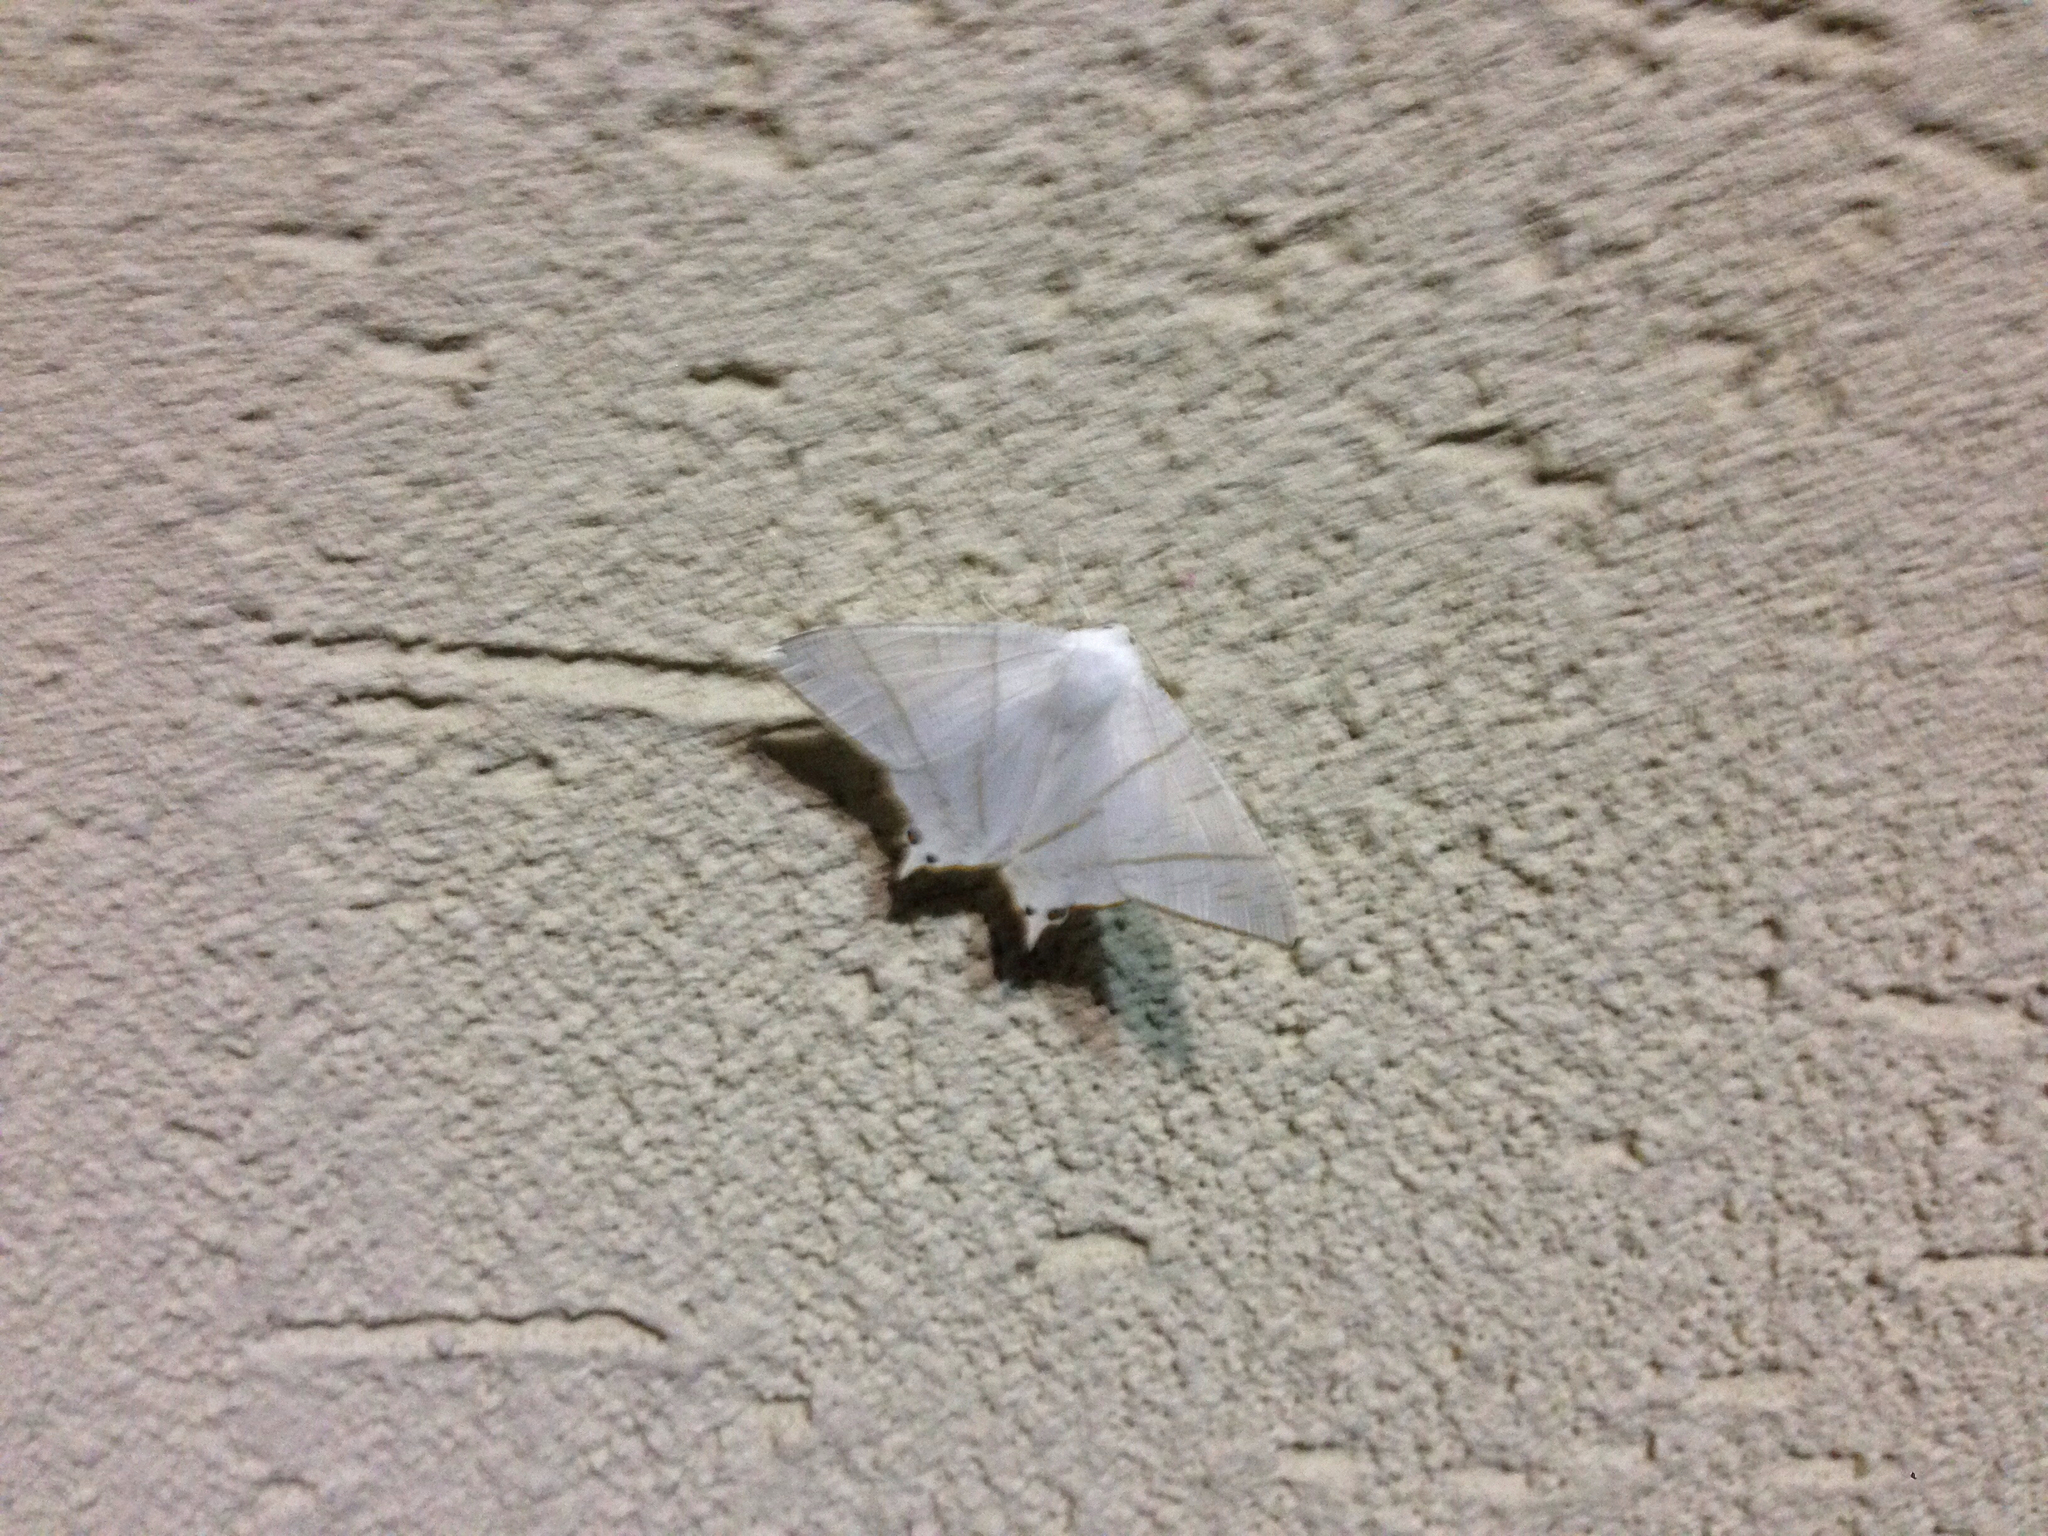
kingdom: Animalia
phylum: Arthropoda
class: Insecta
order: Lepidoptera
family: Geometridae
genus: Ourapteryx
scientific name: Ourapteryx nivea
